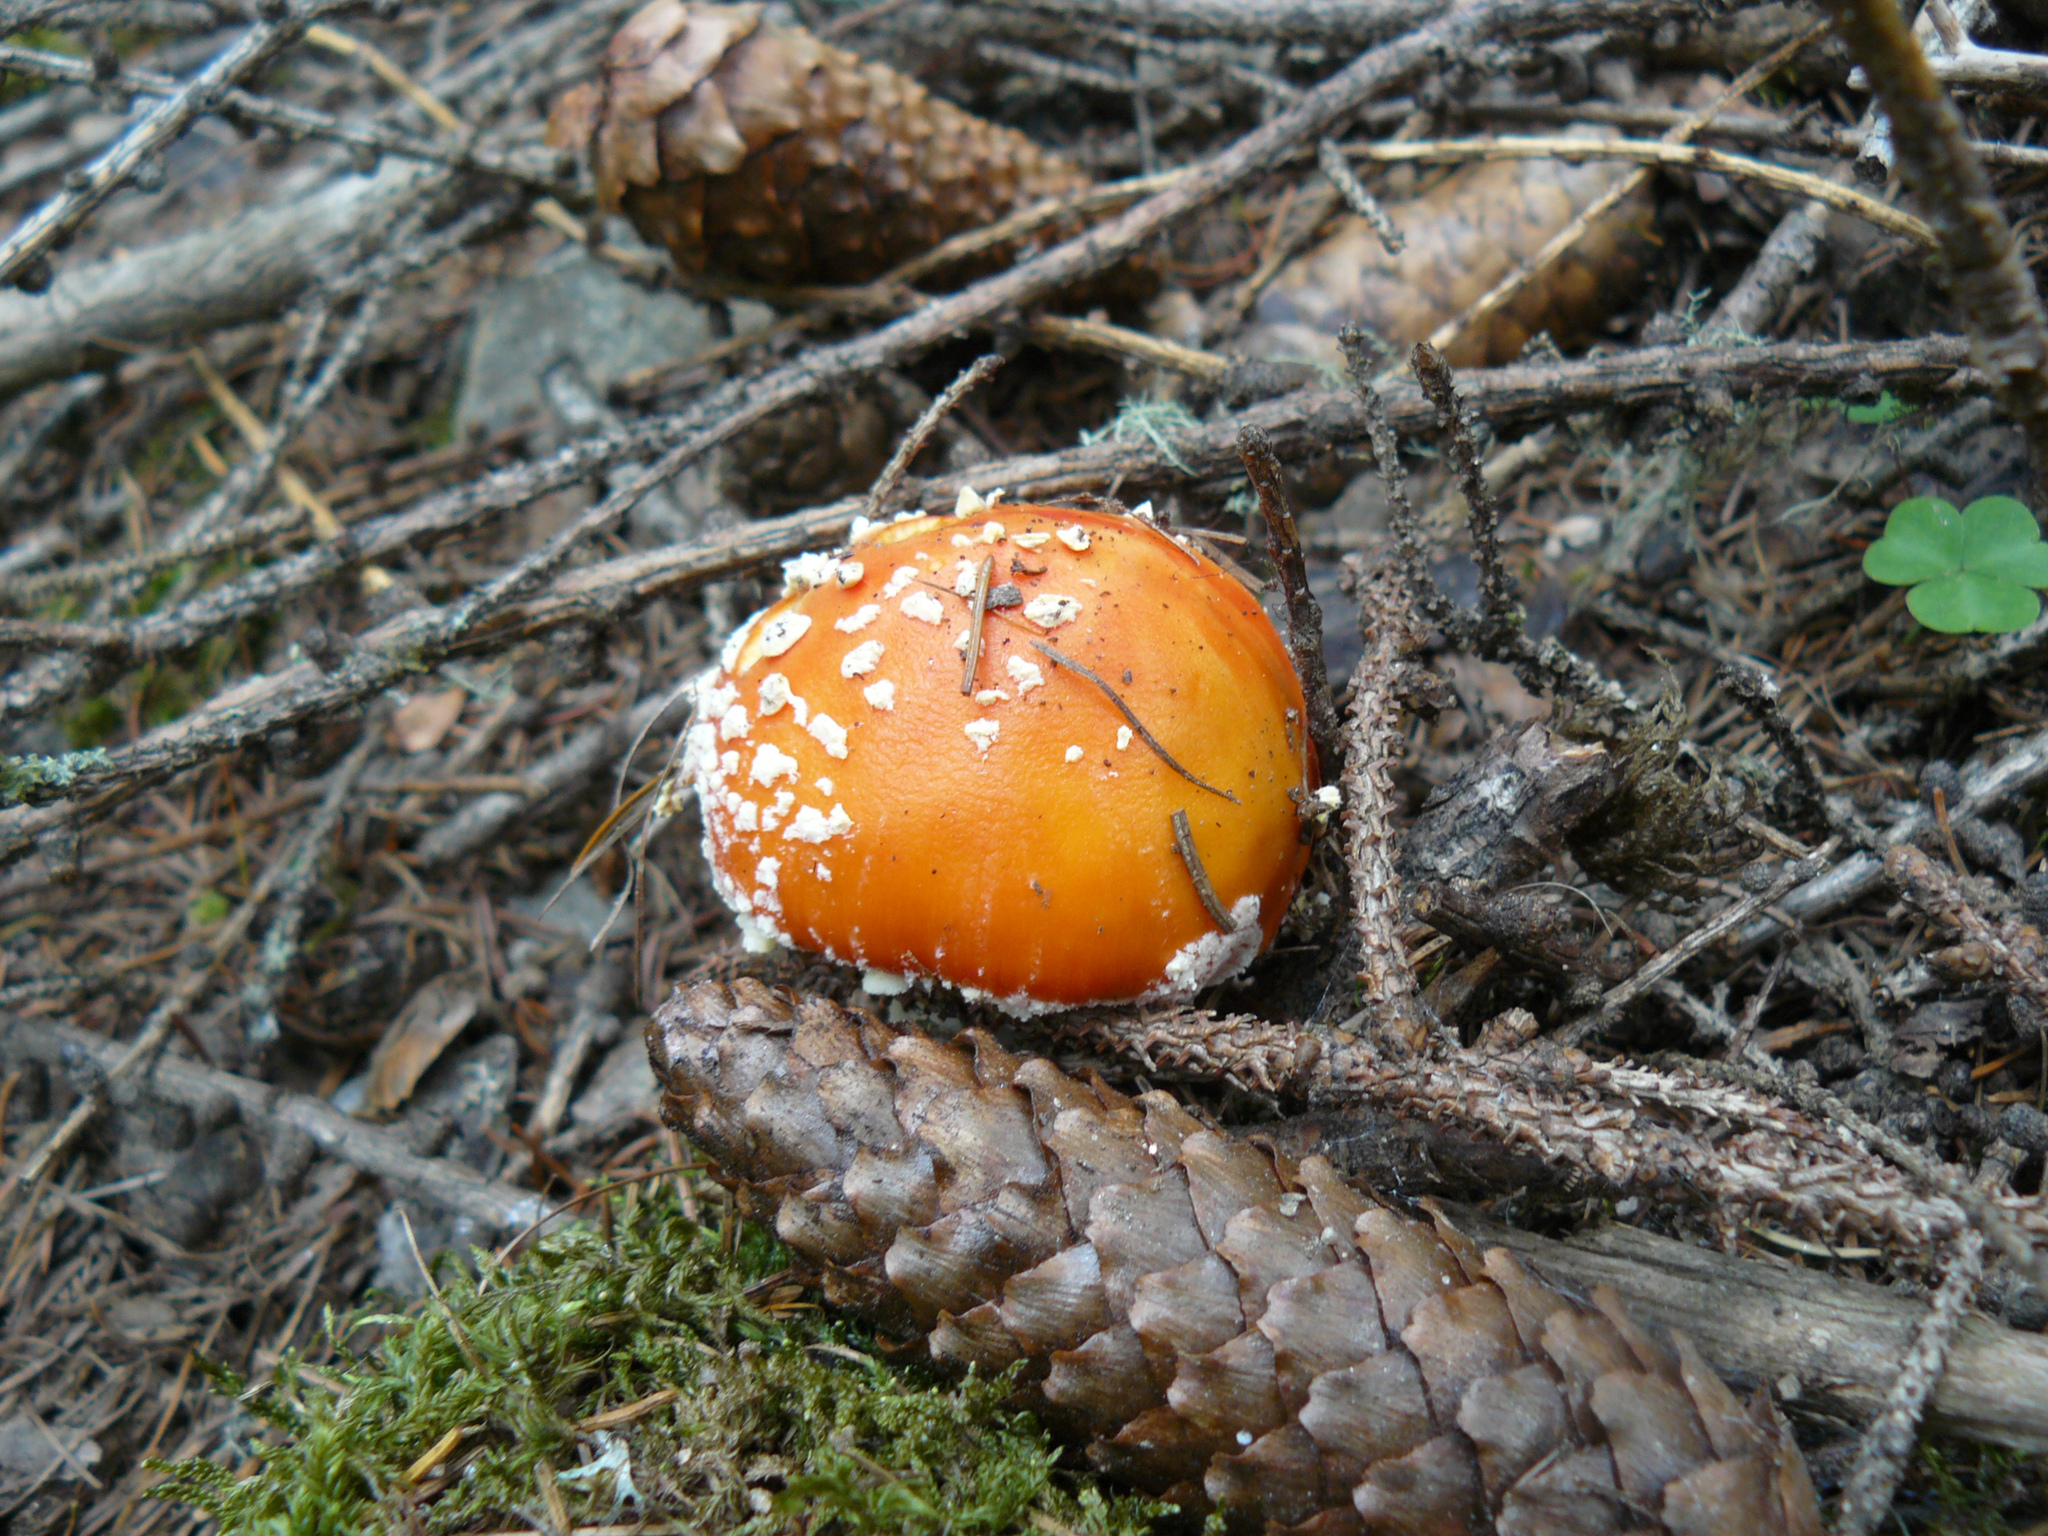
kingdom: Fungi
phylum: Basidiomycota
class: Agaricomycetes
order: Agaricales
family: Amanitaceae
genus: Amanita
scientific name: Amanita muscaria
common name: Fly agaric
